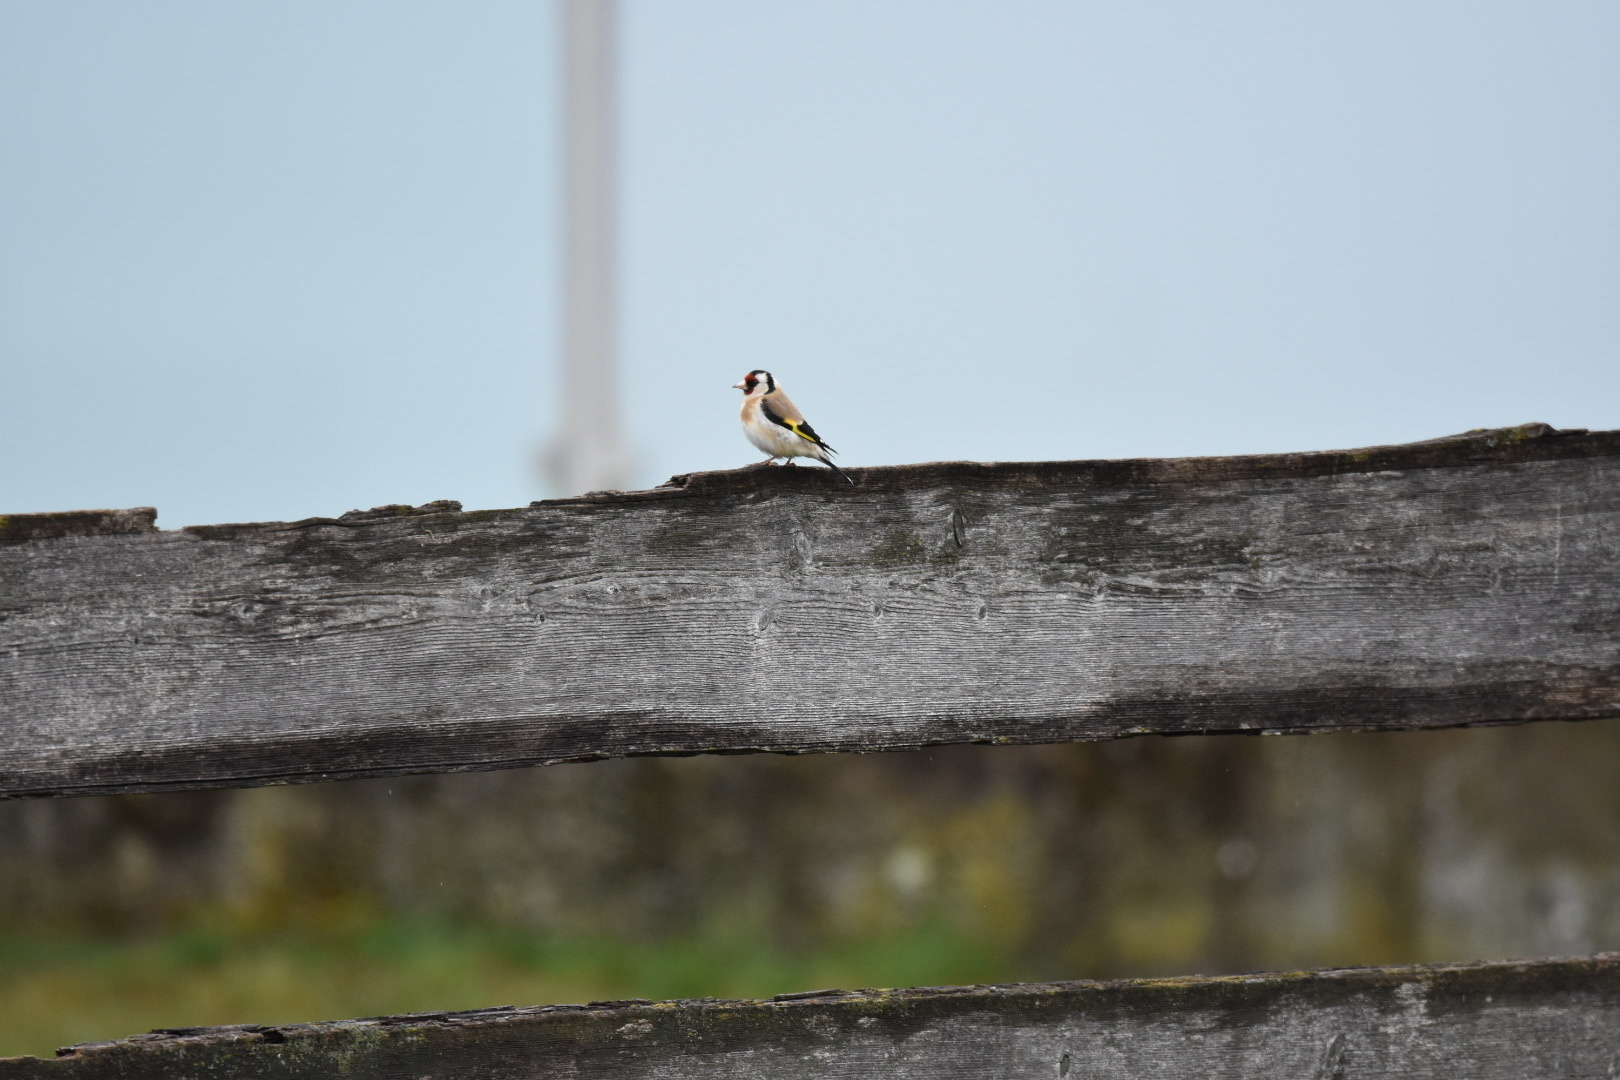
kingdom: Animalia
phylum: Chordata
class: Aves
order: Passeriformes
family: Fringillidae
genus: Carduelis
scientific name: Carduelis carduelis
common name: European goldfinch
